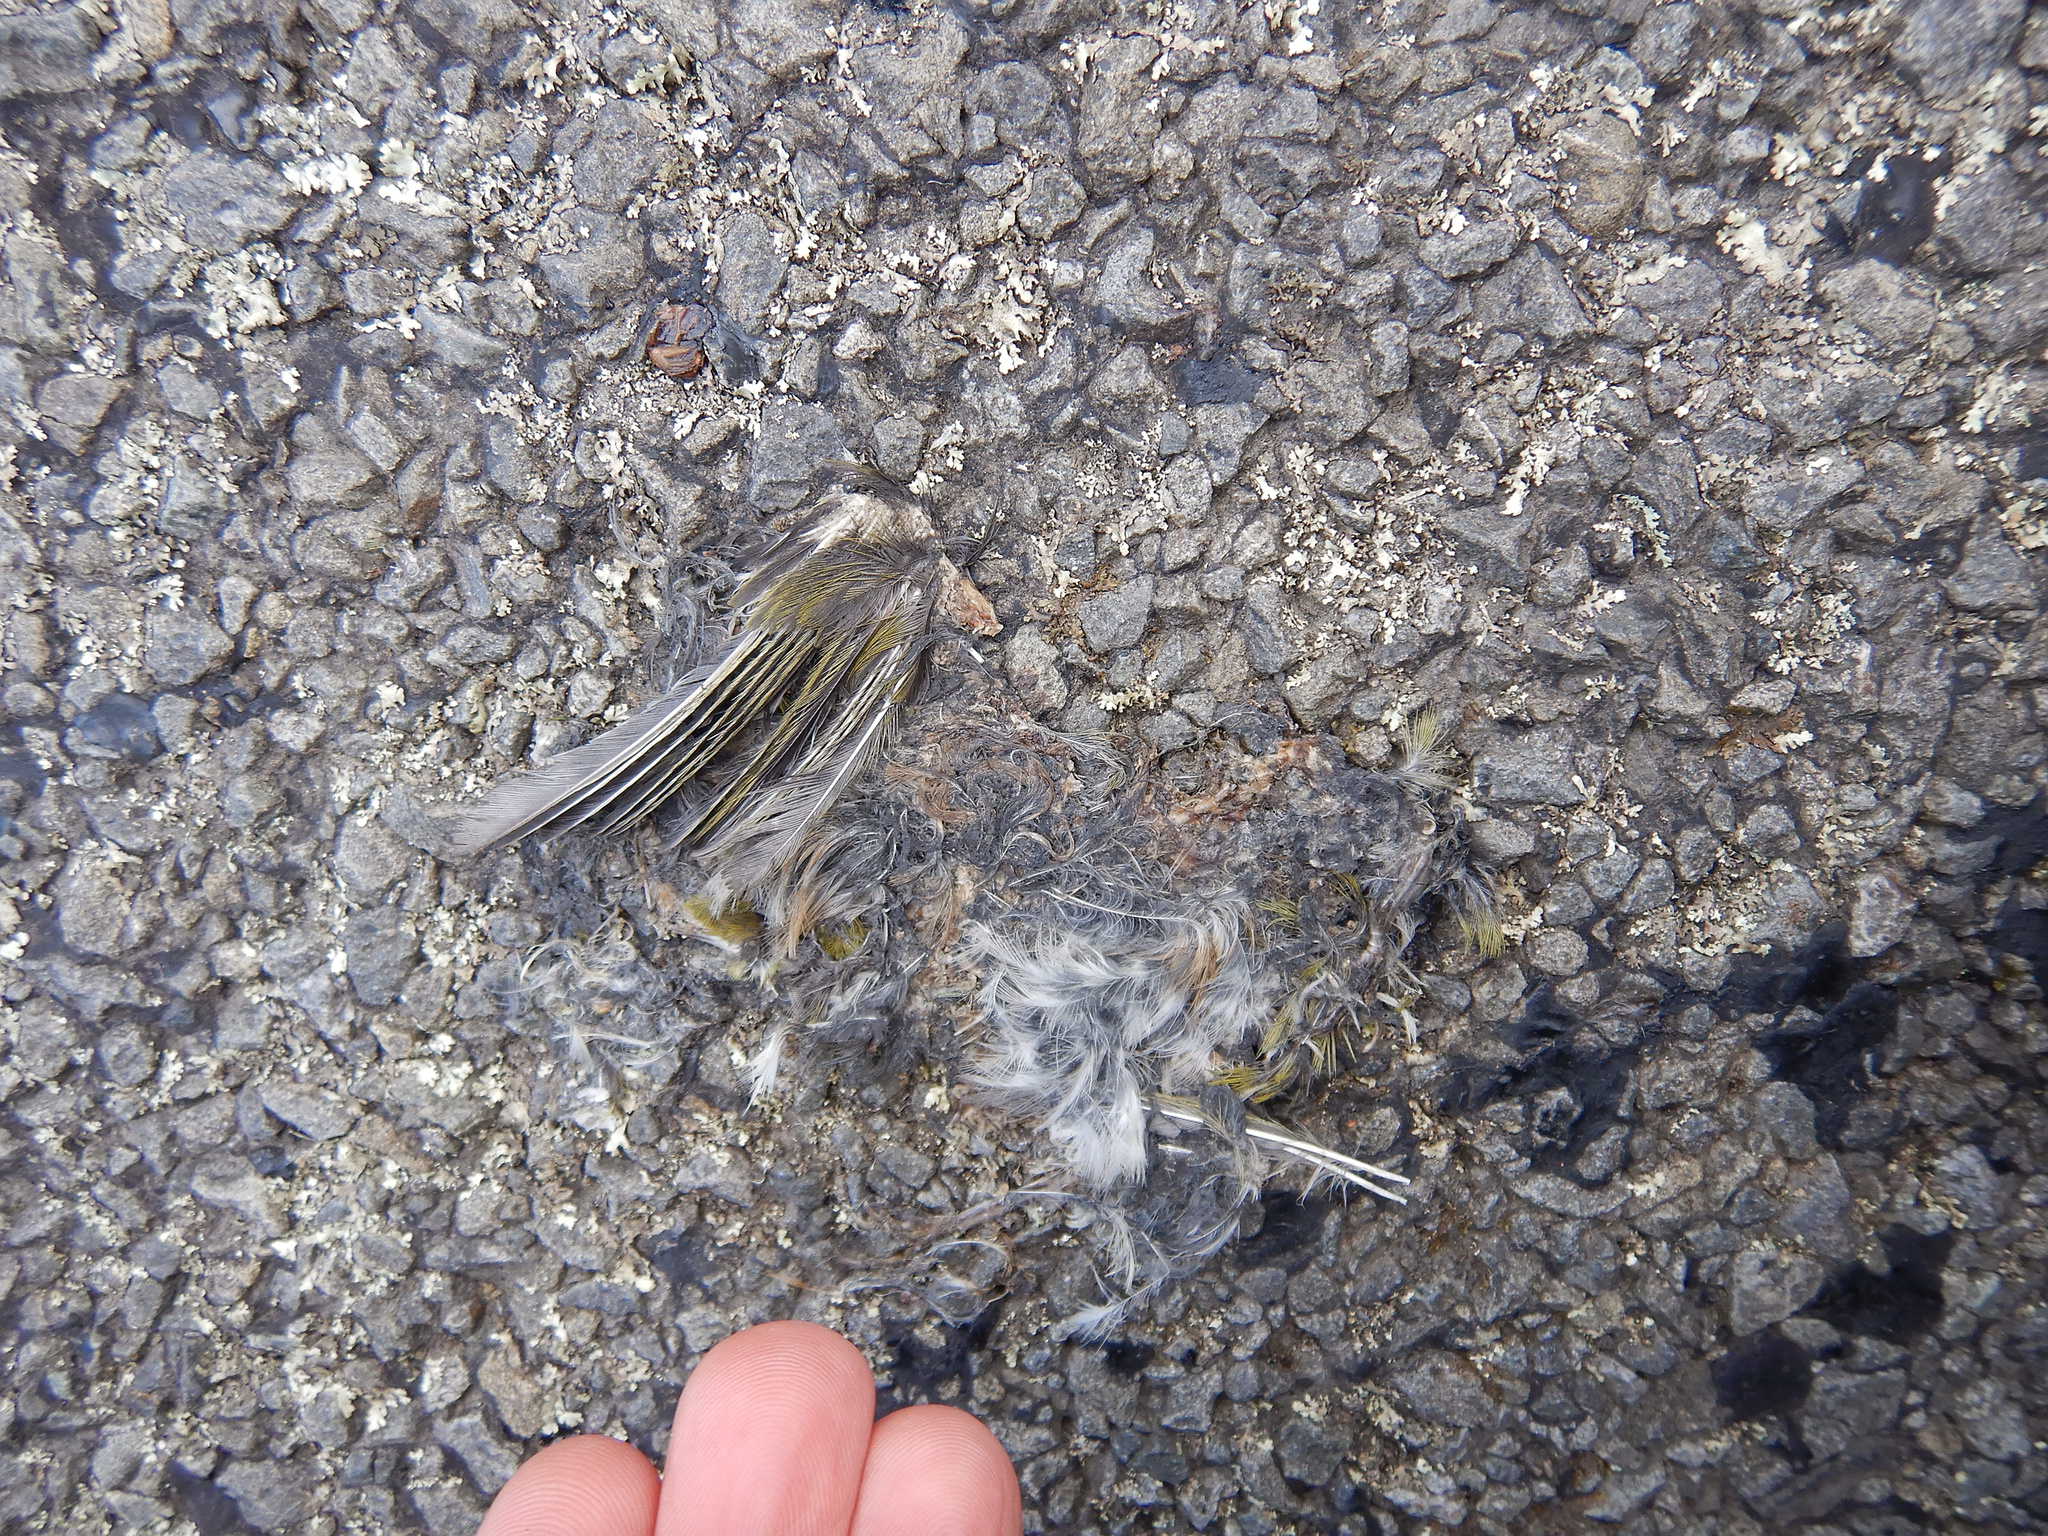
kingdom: Animalia
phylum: Chordata
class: Aves
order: Passeriformes
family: Zosteropidae
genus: Zosterops
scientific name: Zosterops lateralis
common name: Silvereye
